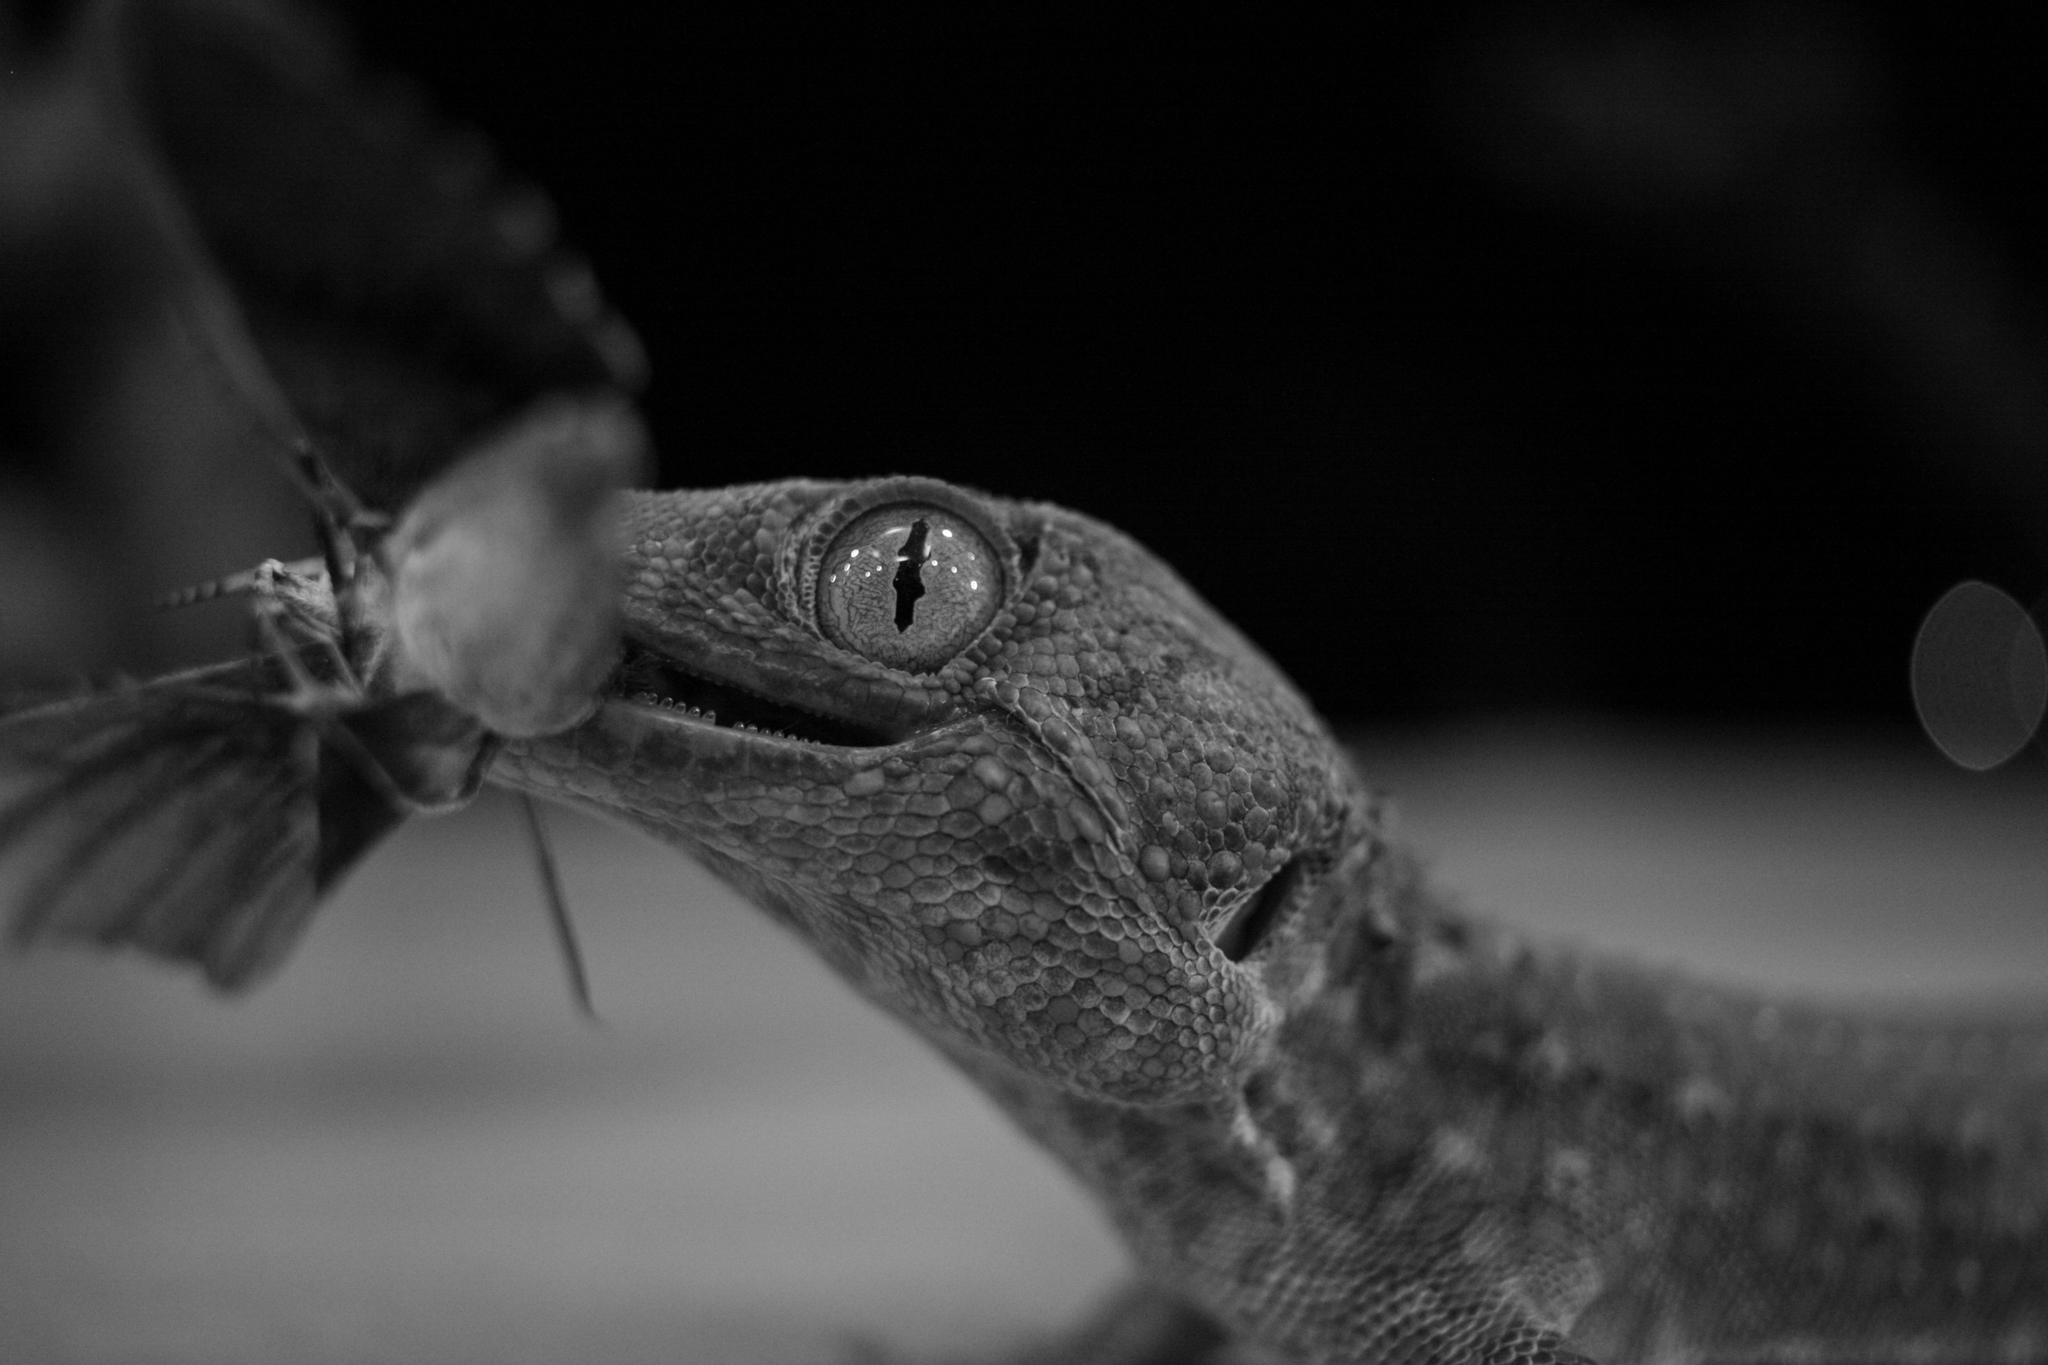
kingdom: Animalia
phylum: Chordata
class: Squamata
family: Gekkonidae
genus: Gekko
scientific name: Gekko gecko
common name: Tokay gecko
